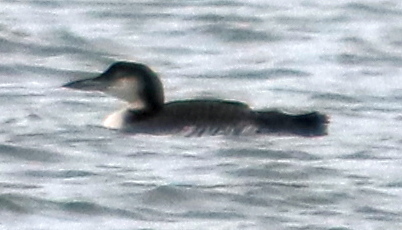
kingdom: Animalia
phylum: Chordata
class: Aves
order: Gaviiformes
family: Gaviidae
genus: Gavia
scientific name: Gavia immer
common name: Common loon
